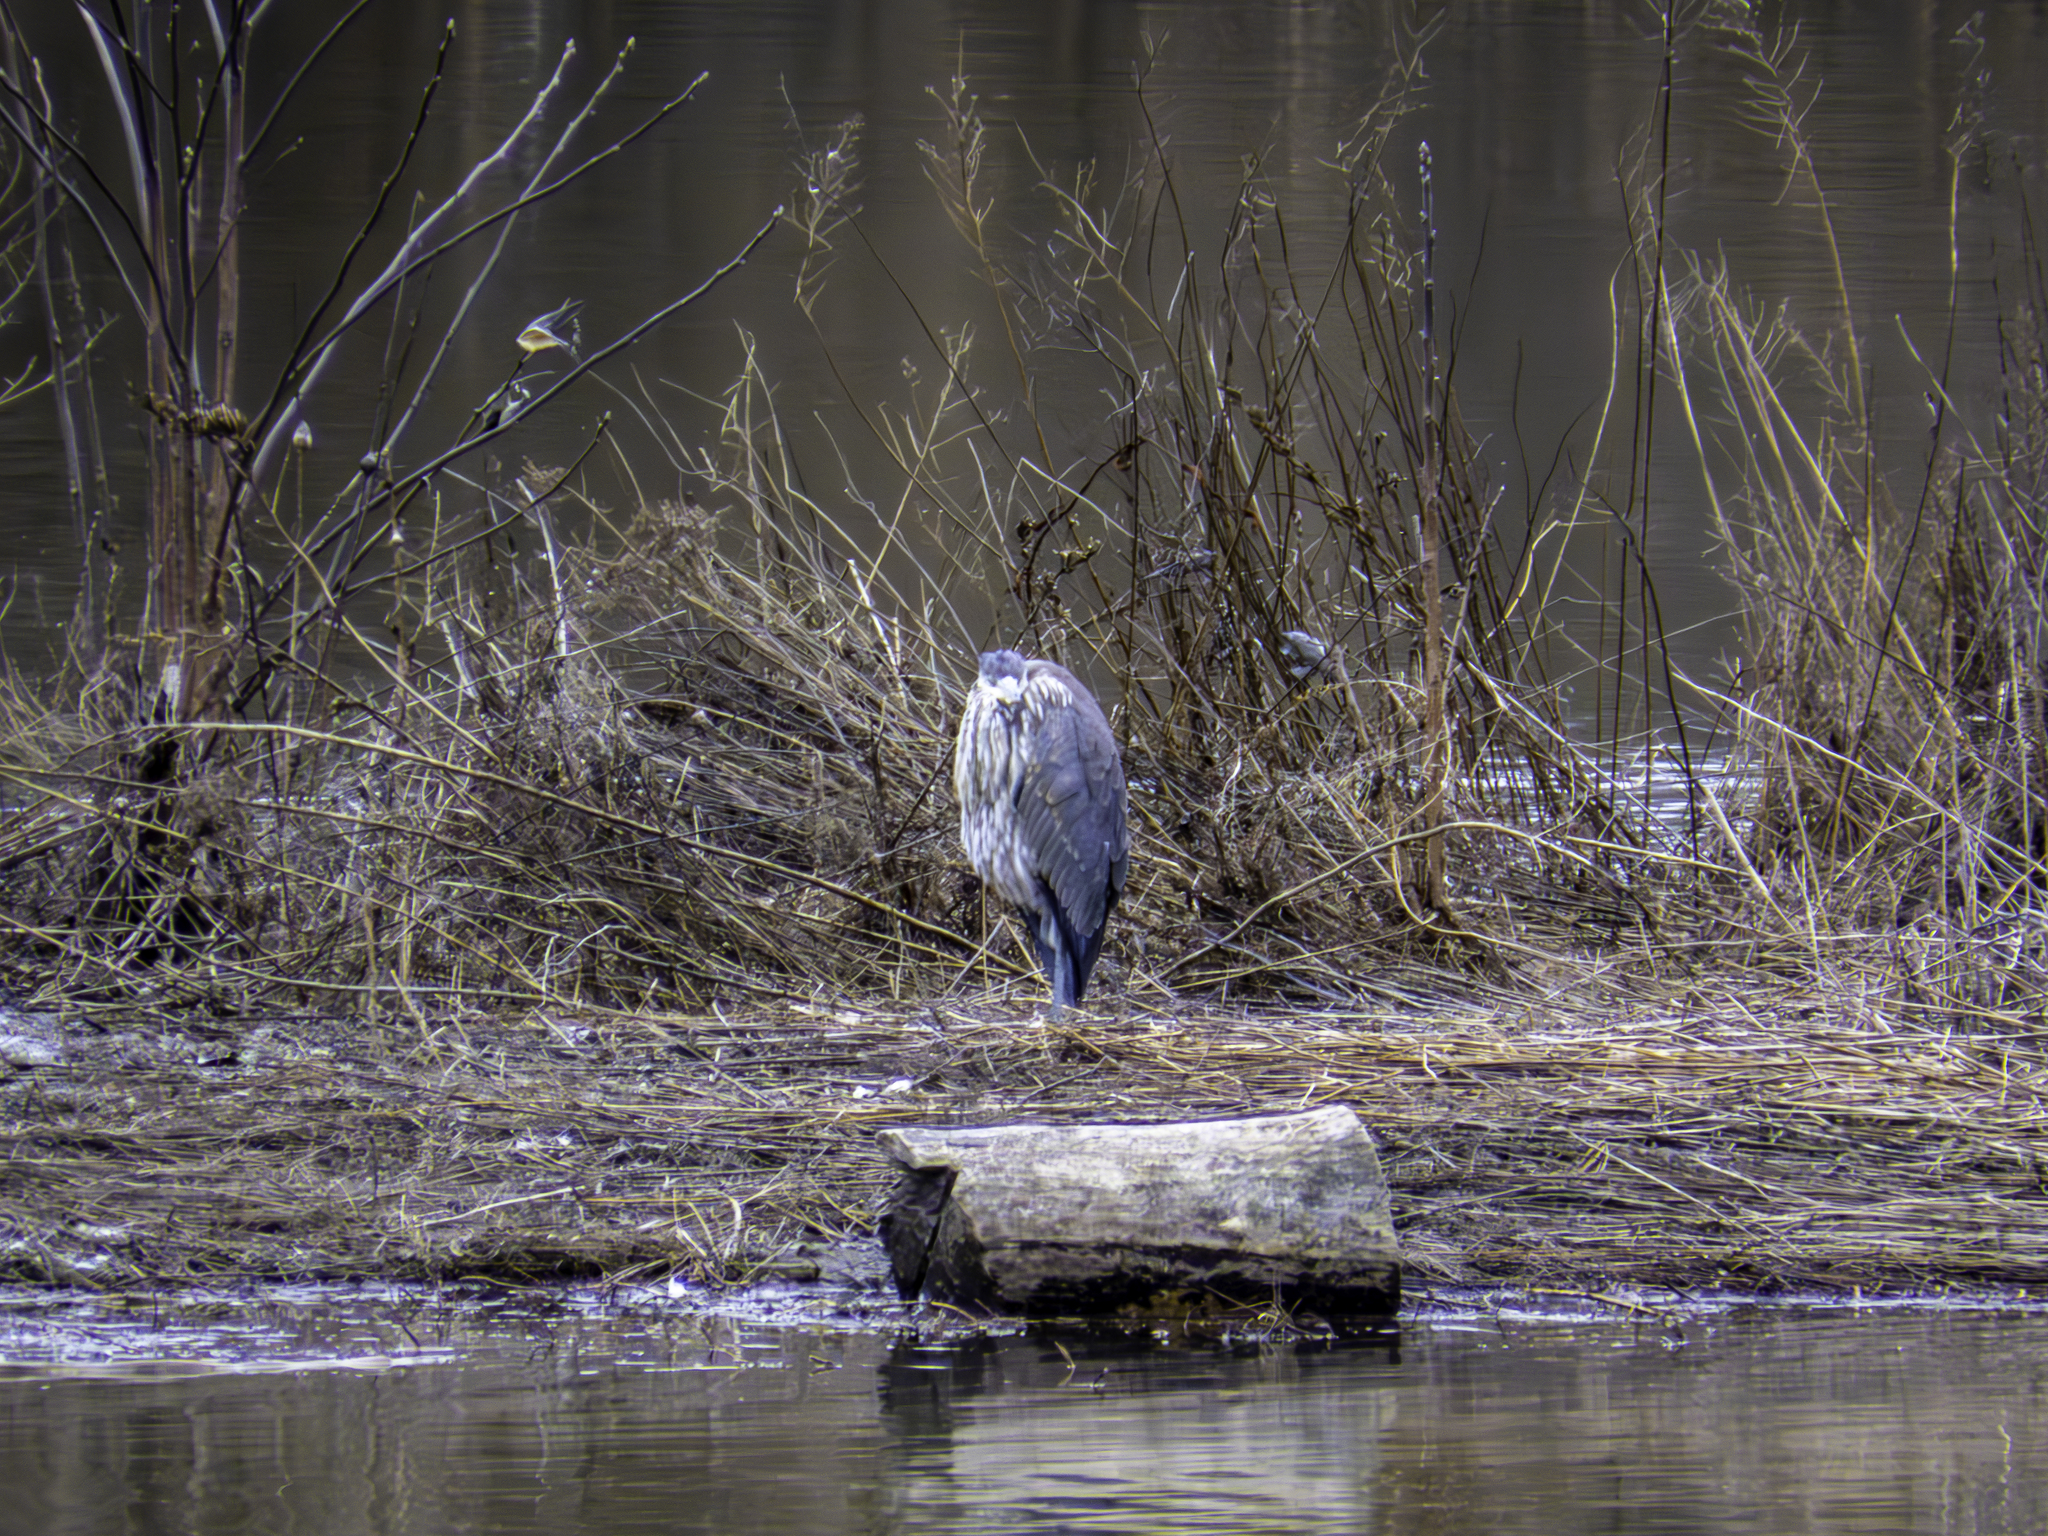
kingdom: Animalia
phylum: Chordata
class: Aves
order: Pelecaniformes
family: Ardeidae
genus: Ardea
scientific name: Ardea herodias
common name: Great blue heron
